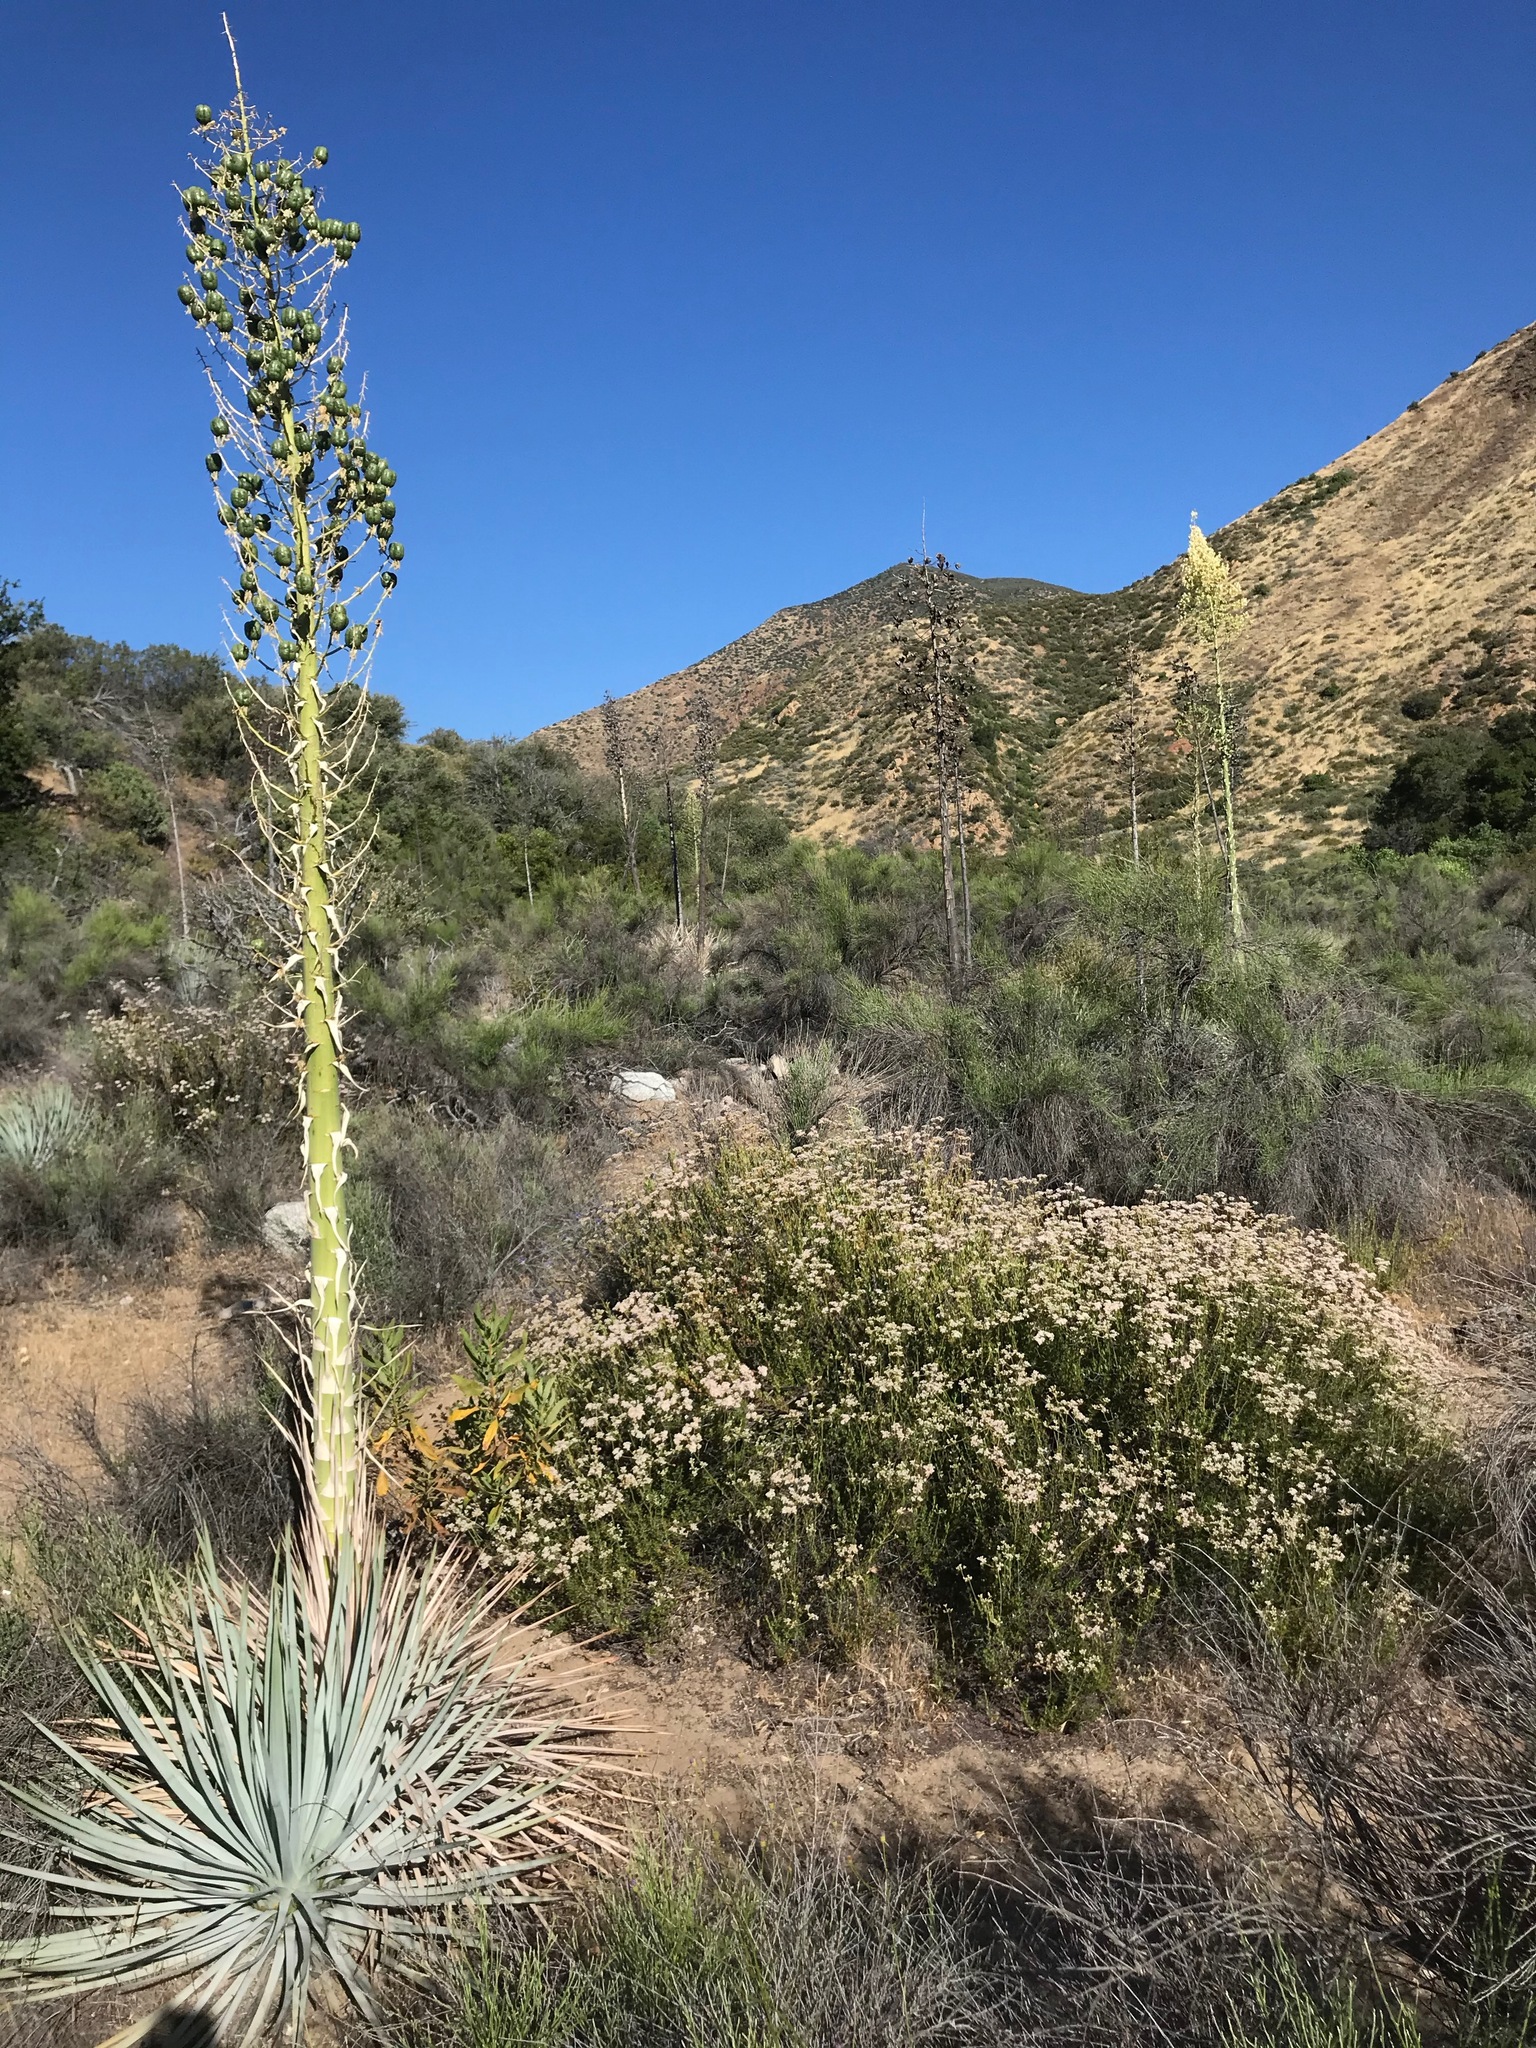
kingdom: Plantae
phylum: Tracheophyta
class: Liliopsida
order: Asparagales
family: Asparagaceae
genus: Hesperoyucca
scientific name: Hesperoyucca whipplei
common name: Our lord's-candle
